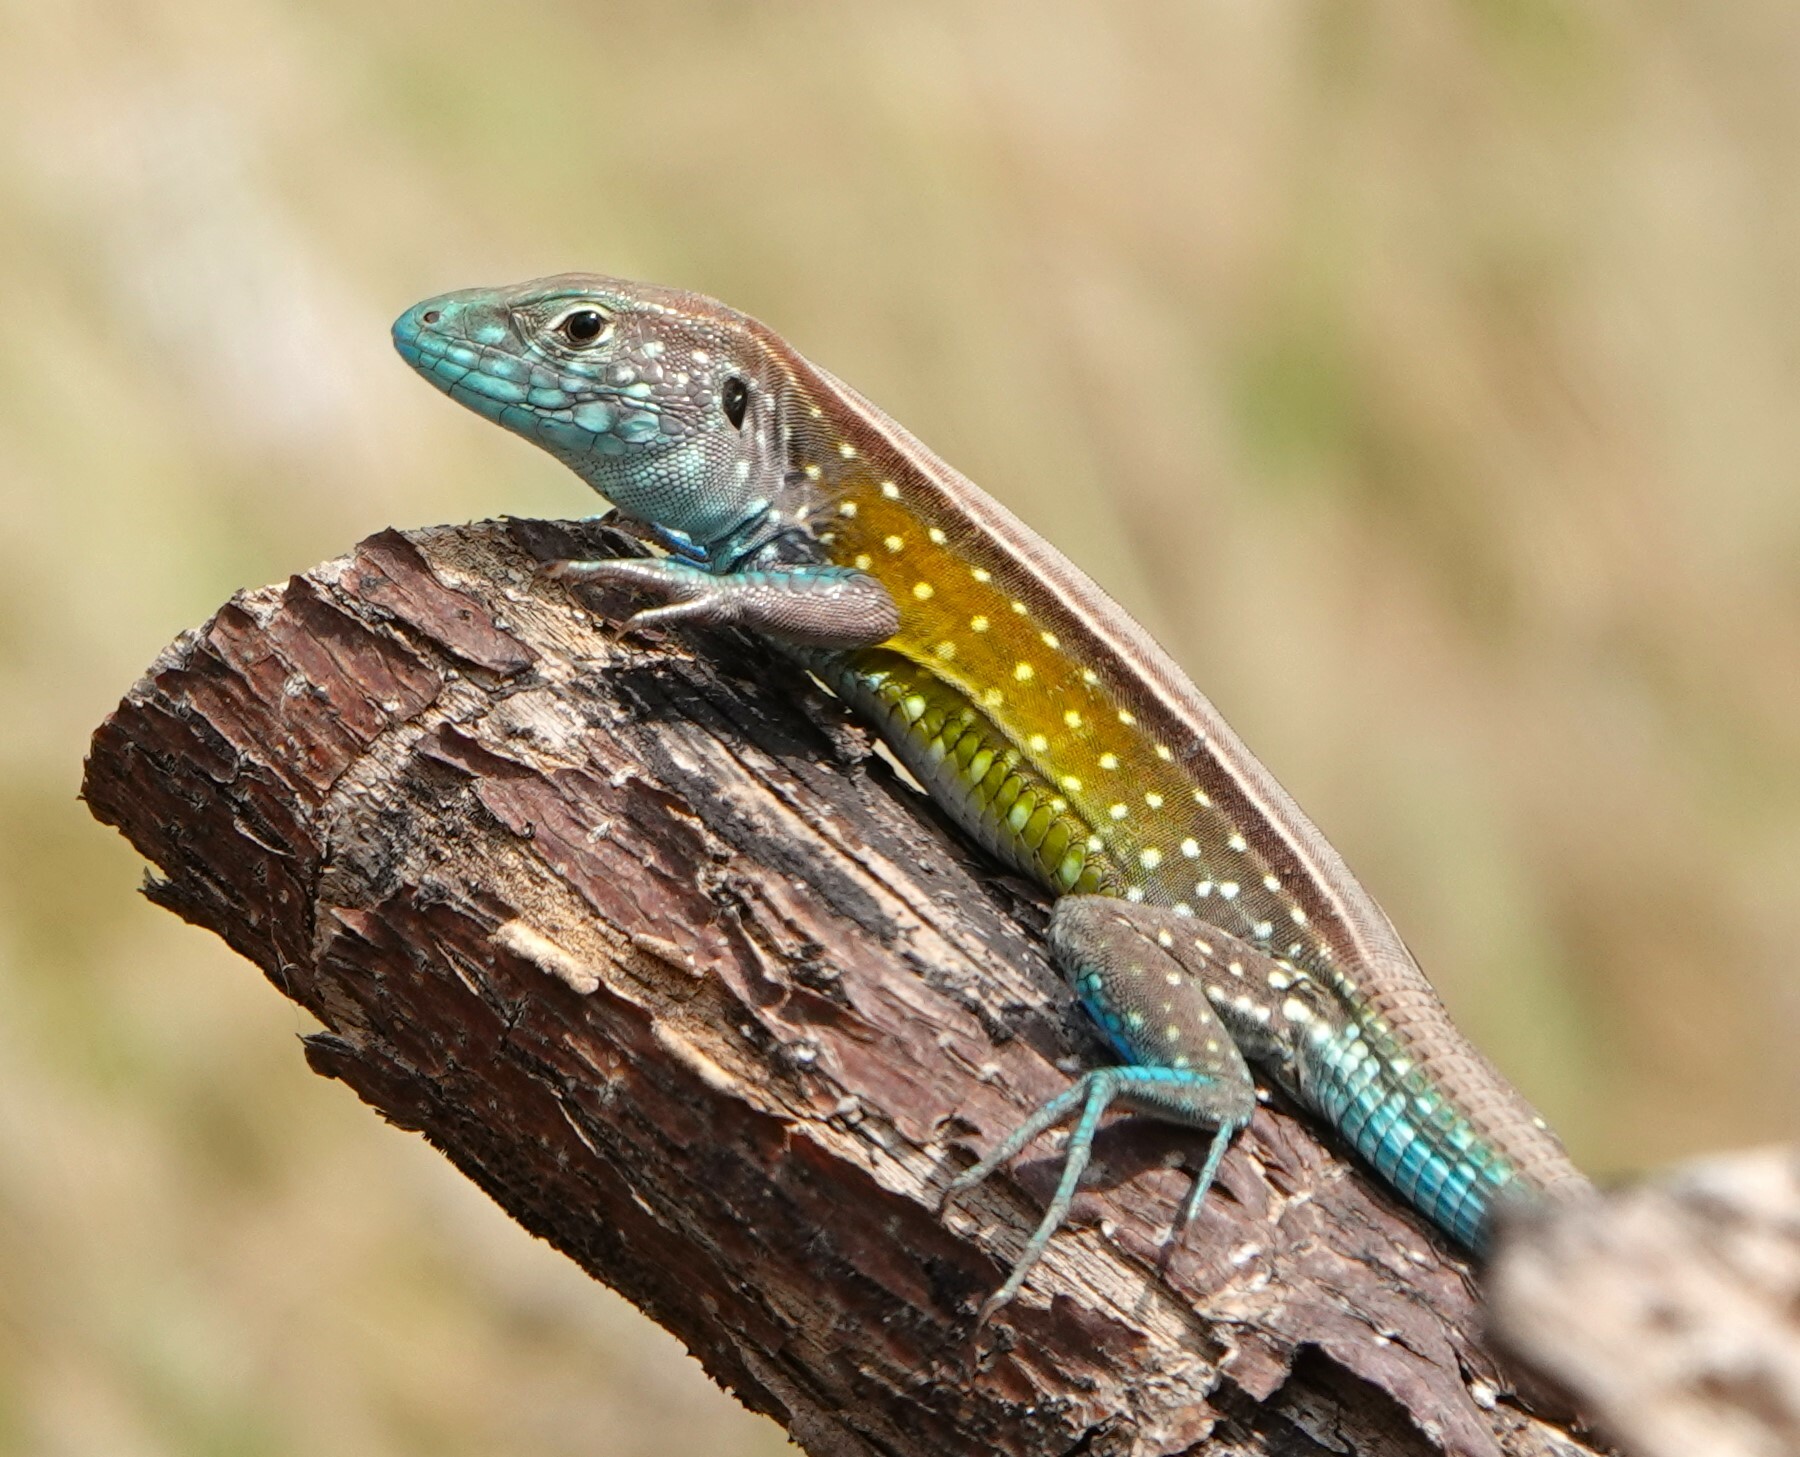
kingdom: Animalia
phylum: Chordata
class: Squamata
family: Teiidae
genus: Cnemidophorus
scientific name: Cnemidophorus gaigei
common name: Gaige’s rainbow lizard
